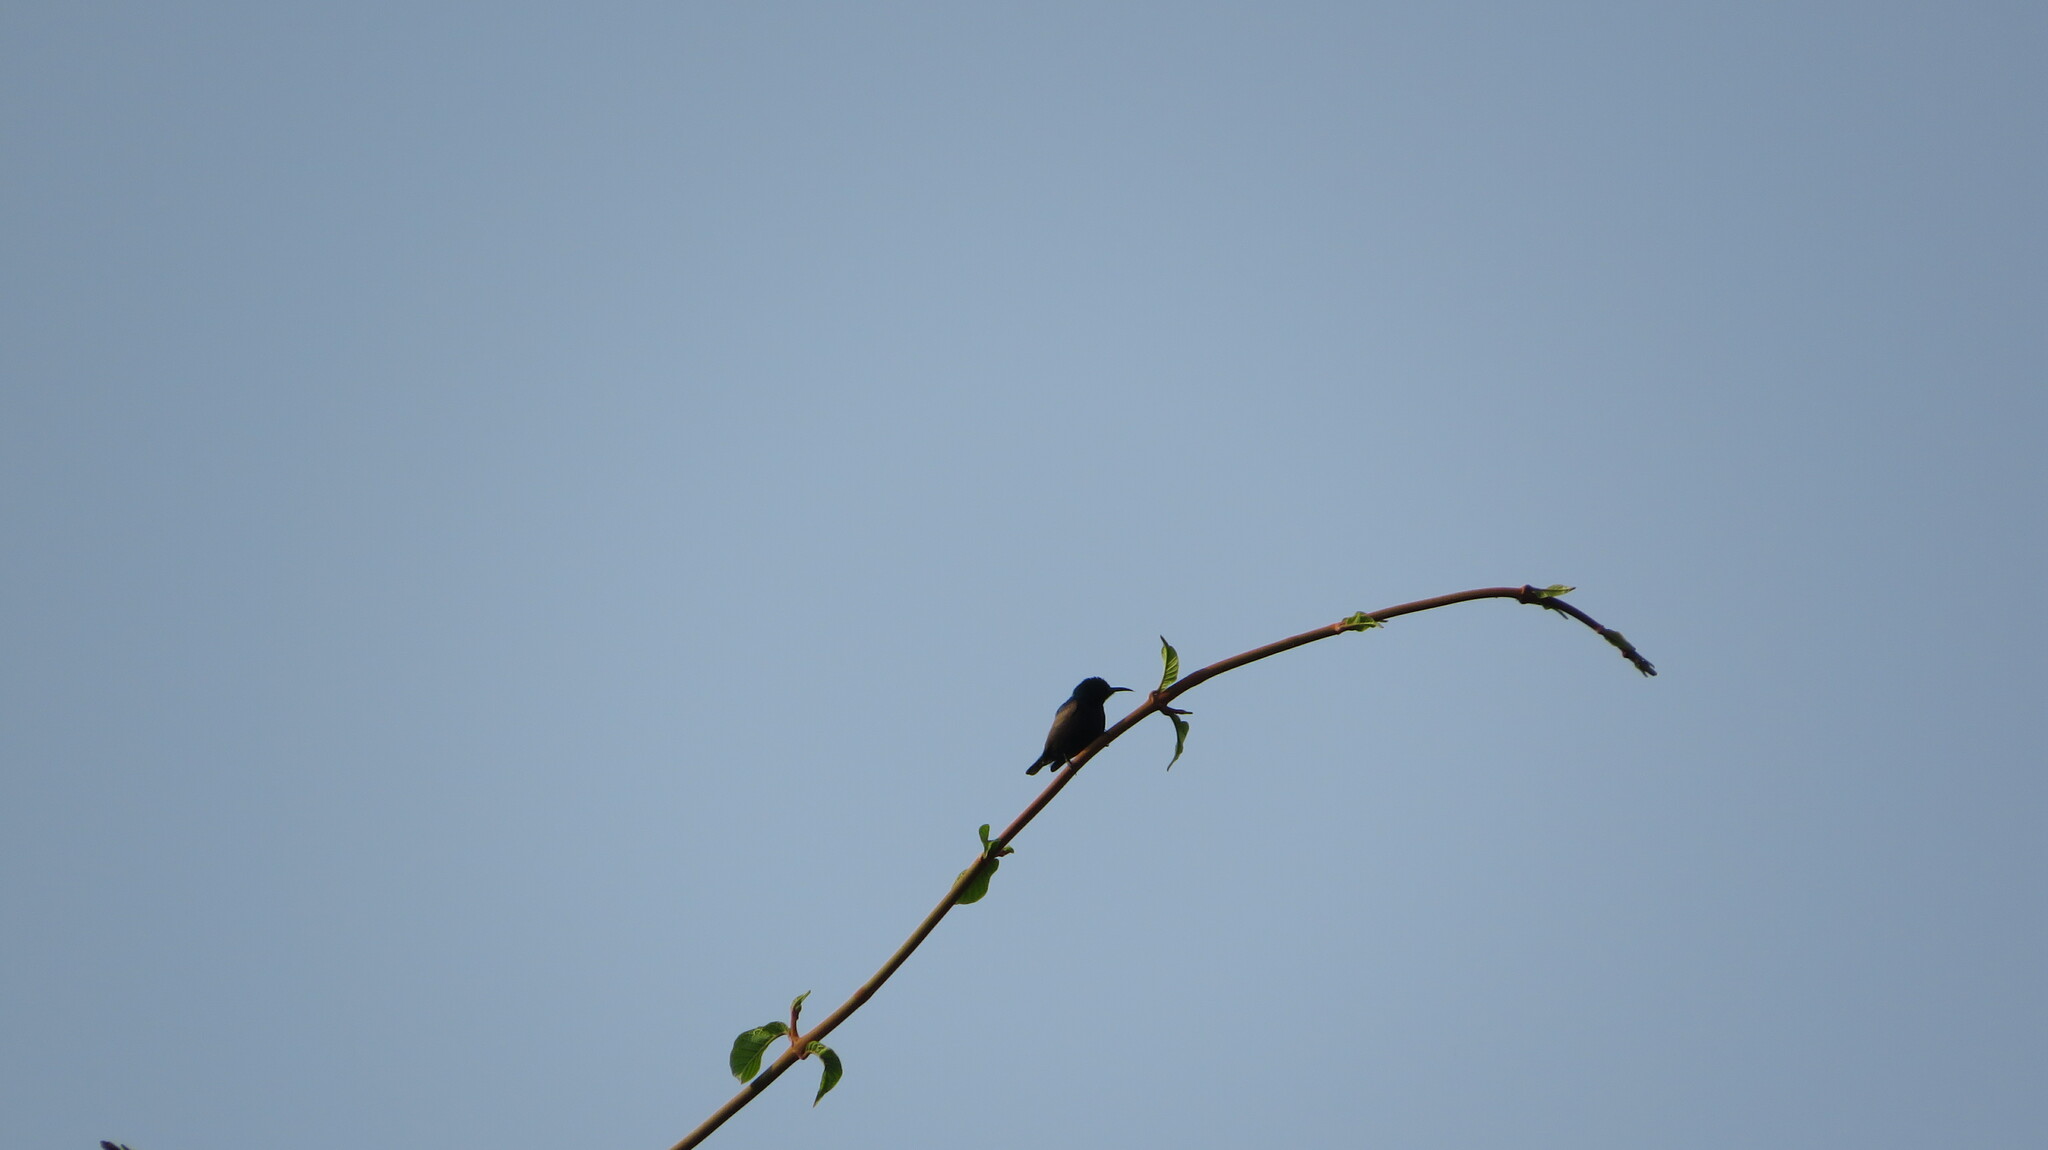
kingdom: Animalia
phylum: Chordata
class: Aves
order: Passeriformes
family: Nectariniidae
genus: Cinnyris
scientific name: Cinnyris asiaticus
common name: Purple sunbird
